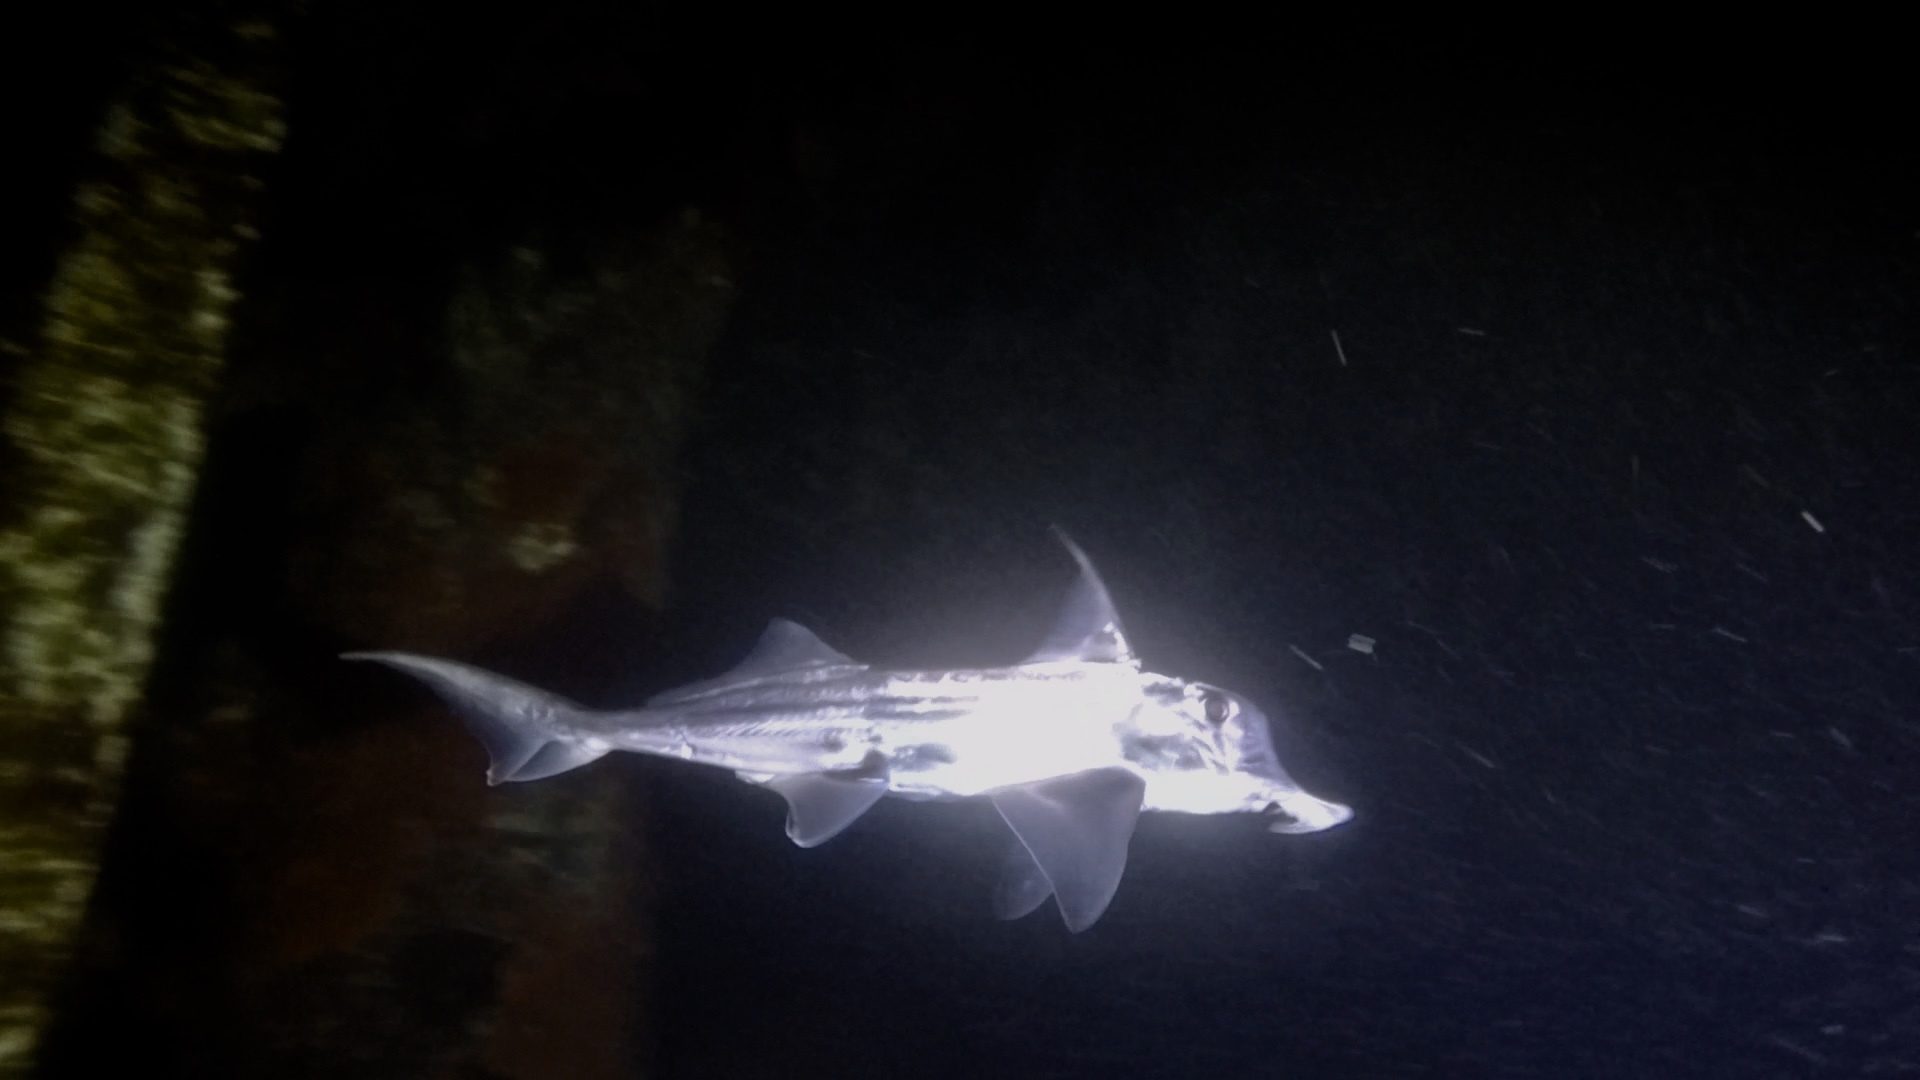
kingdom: Animalia
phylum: Chordata
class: Holocephali
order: Chimaeriformes
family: Callorhinchidae
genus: Callorhinchus
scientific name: Callorhinchus milii
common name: Elephant fish
